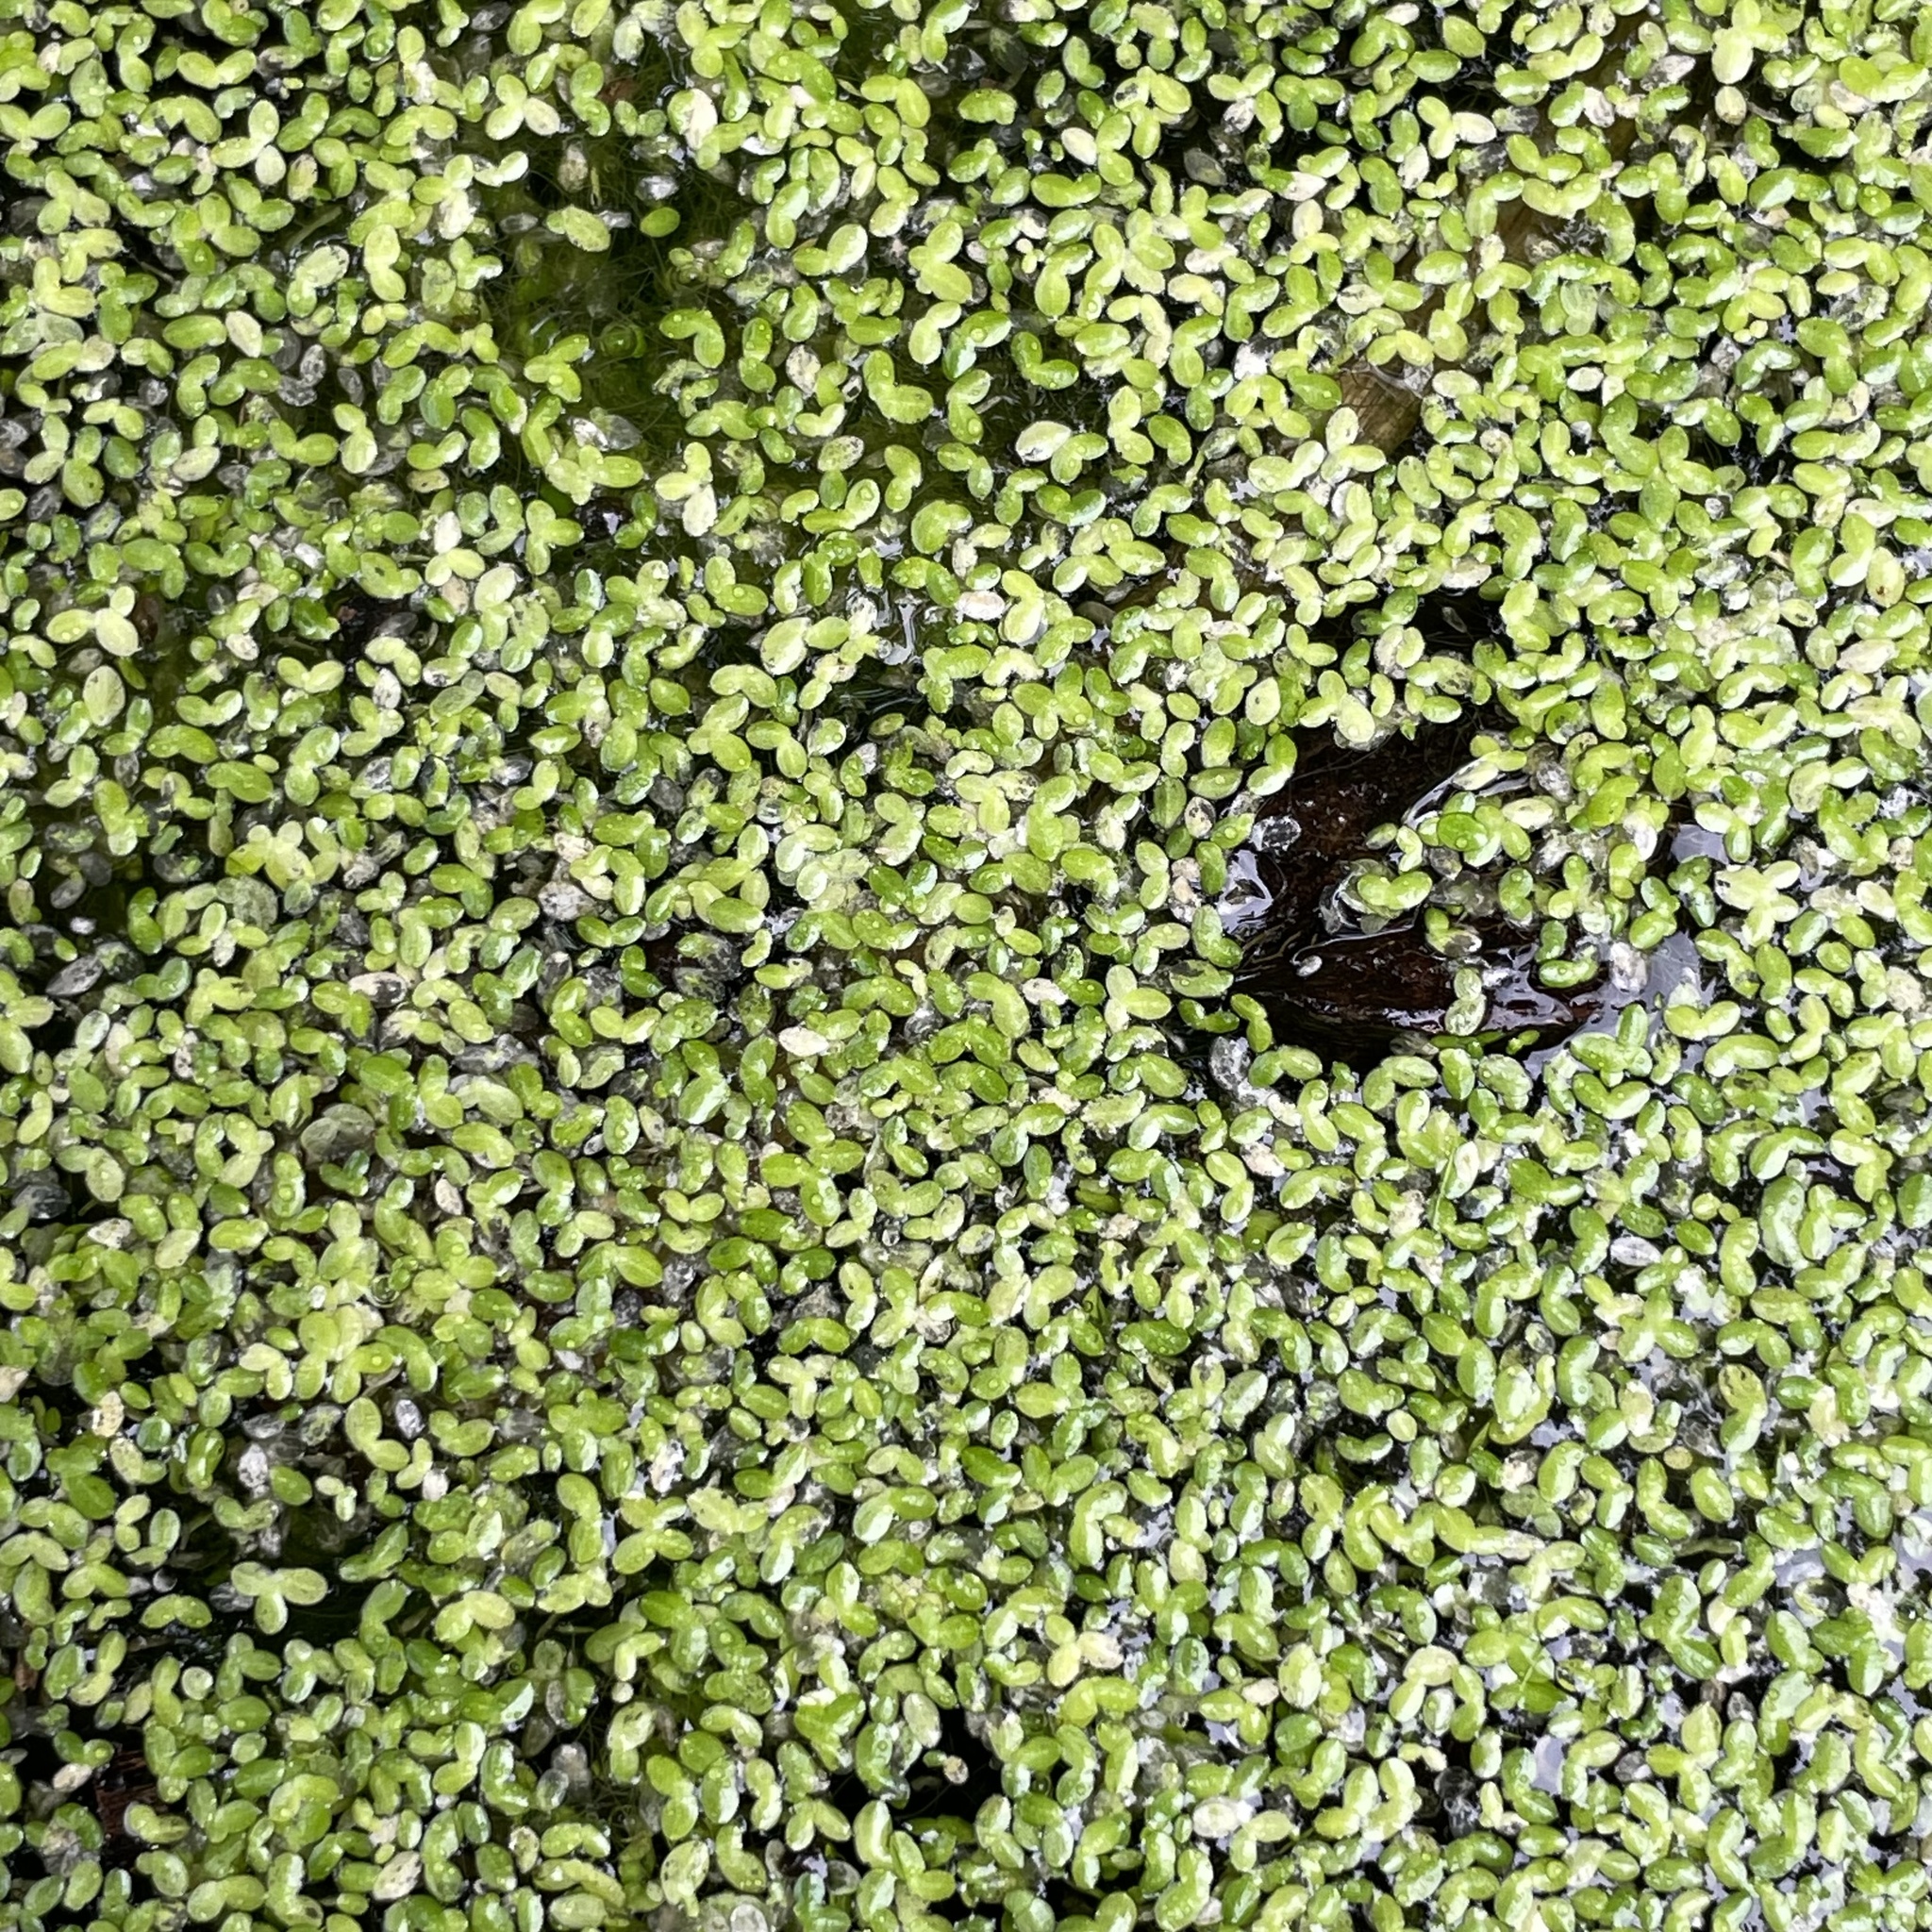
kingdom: Plantae
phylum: Tracheophyta
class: Liliopsida
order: Alismatales
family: Araceae
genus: Lemna
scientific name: Lemna aequinoctialis
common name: Duckweed
